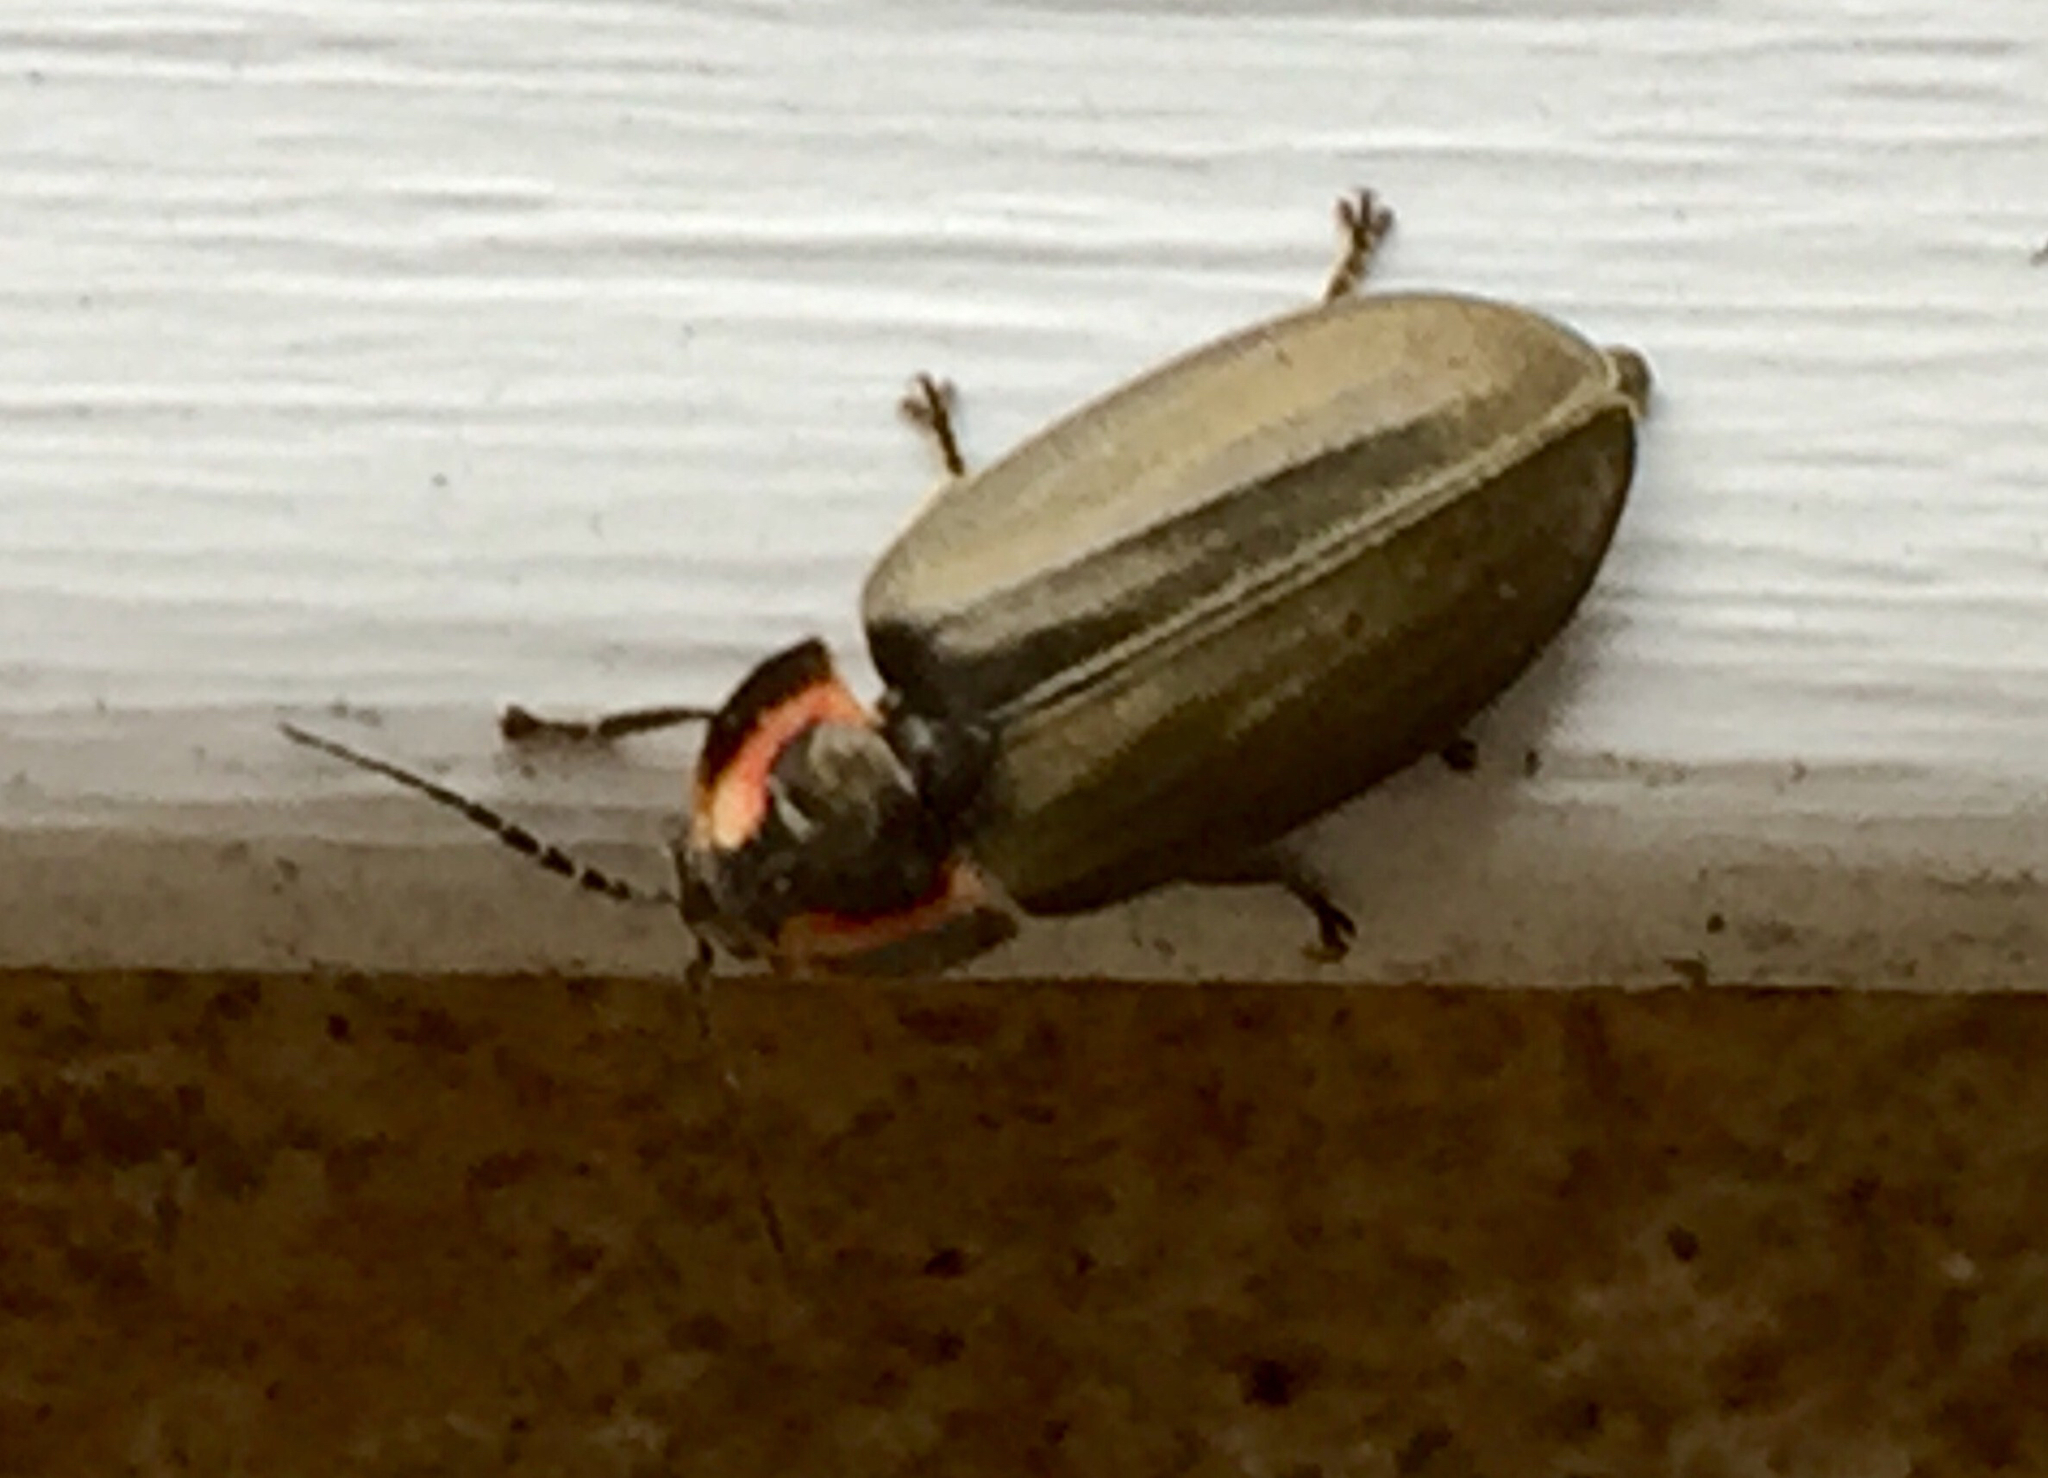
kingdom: Animalia
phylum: Arthropoda
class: Insecta
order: Coleoptera
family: Lampyridae
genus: Photinus
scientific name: Photinus corrusca
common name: Winter firefly
